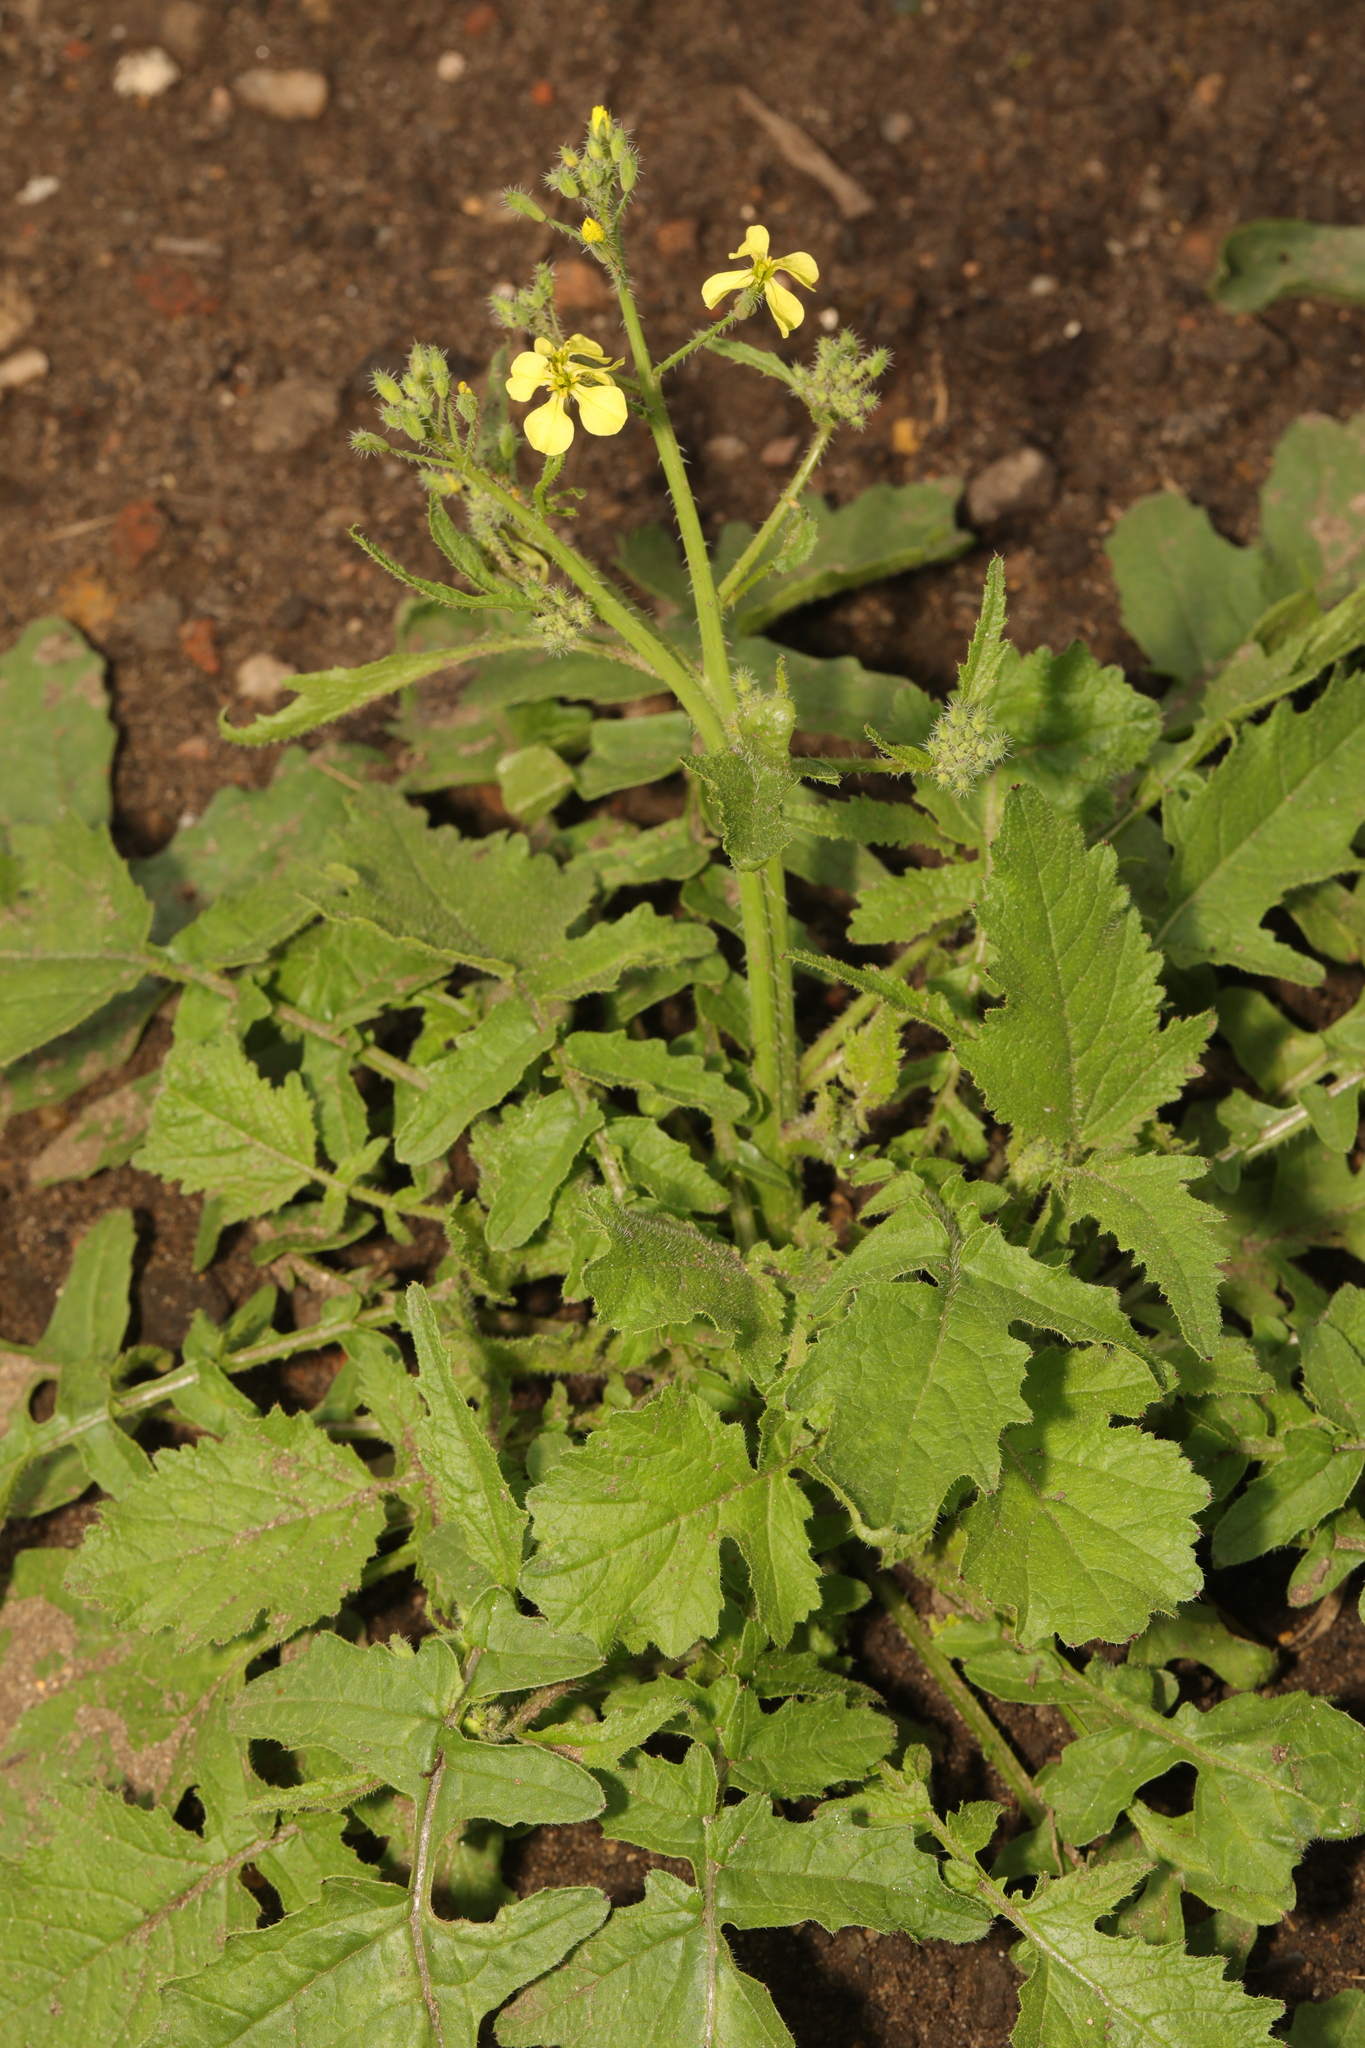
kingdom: Plantae
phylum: Tracheophyta
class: Magnoliopsida
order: Brassicales
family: Brassicaceae
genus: Raphanus
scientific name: Raphanus raphanistrum
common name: Wild radish
